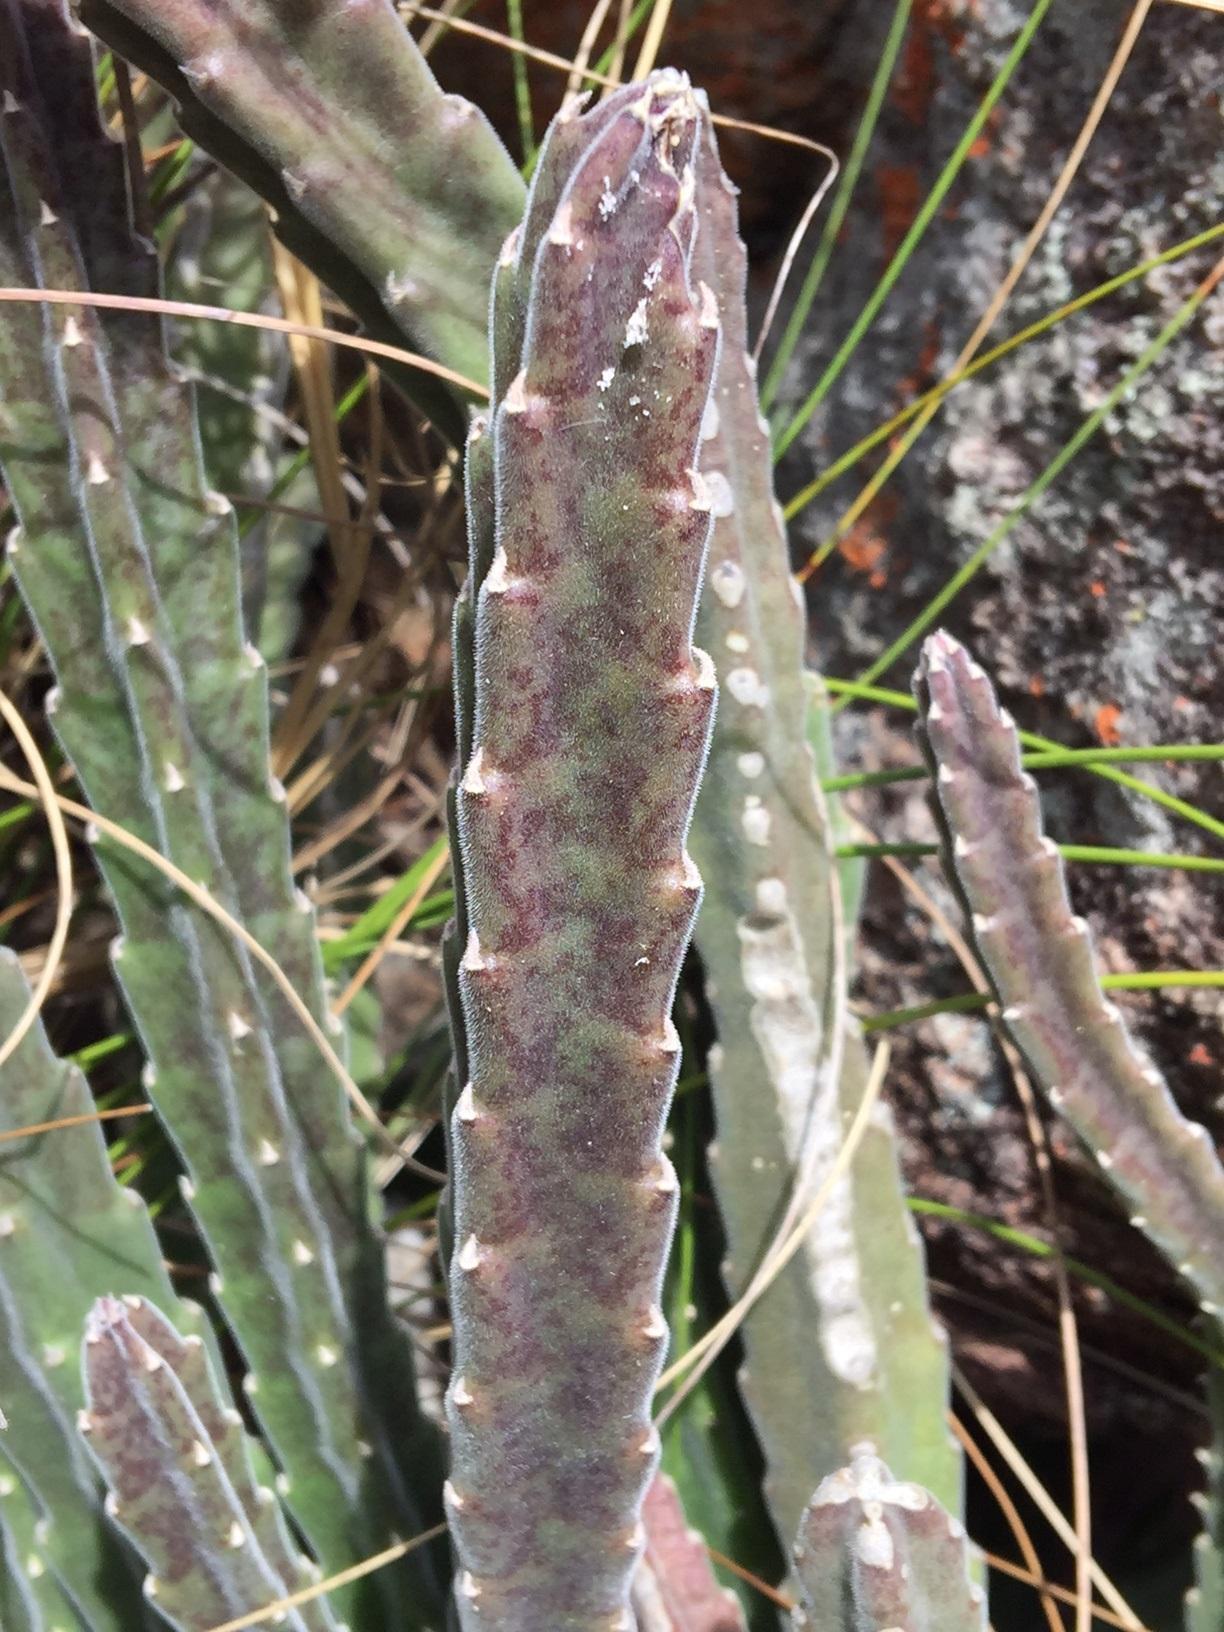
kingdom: Plantae
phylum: Tracheophyta
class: Magnoliopsida
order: Gentianales
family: Apocynaceae
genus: Ceropegia
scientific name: Ceropegia pulvinata
